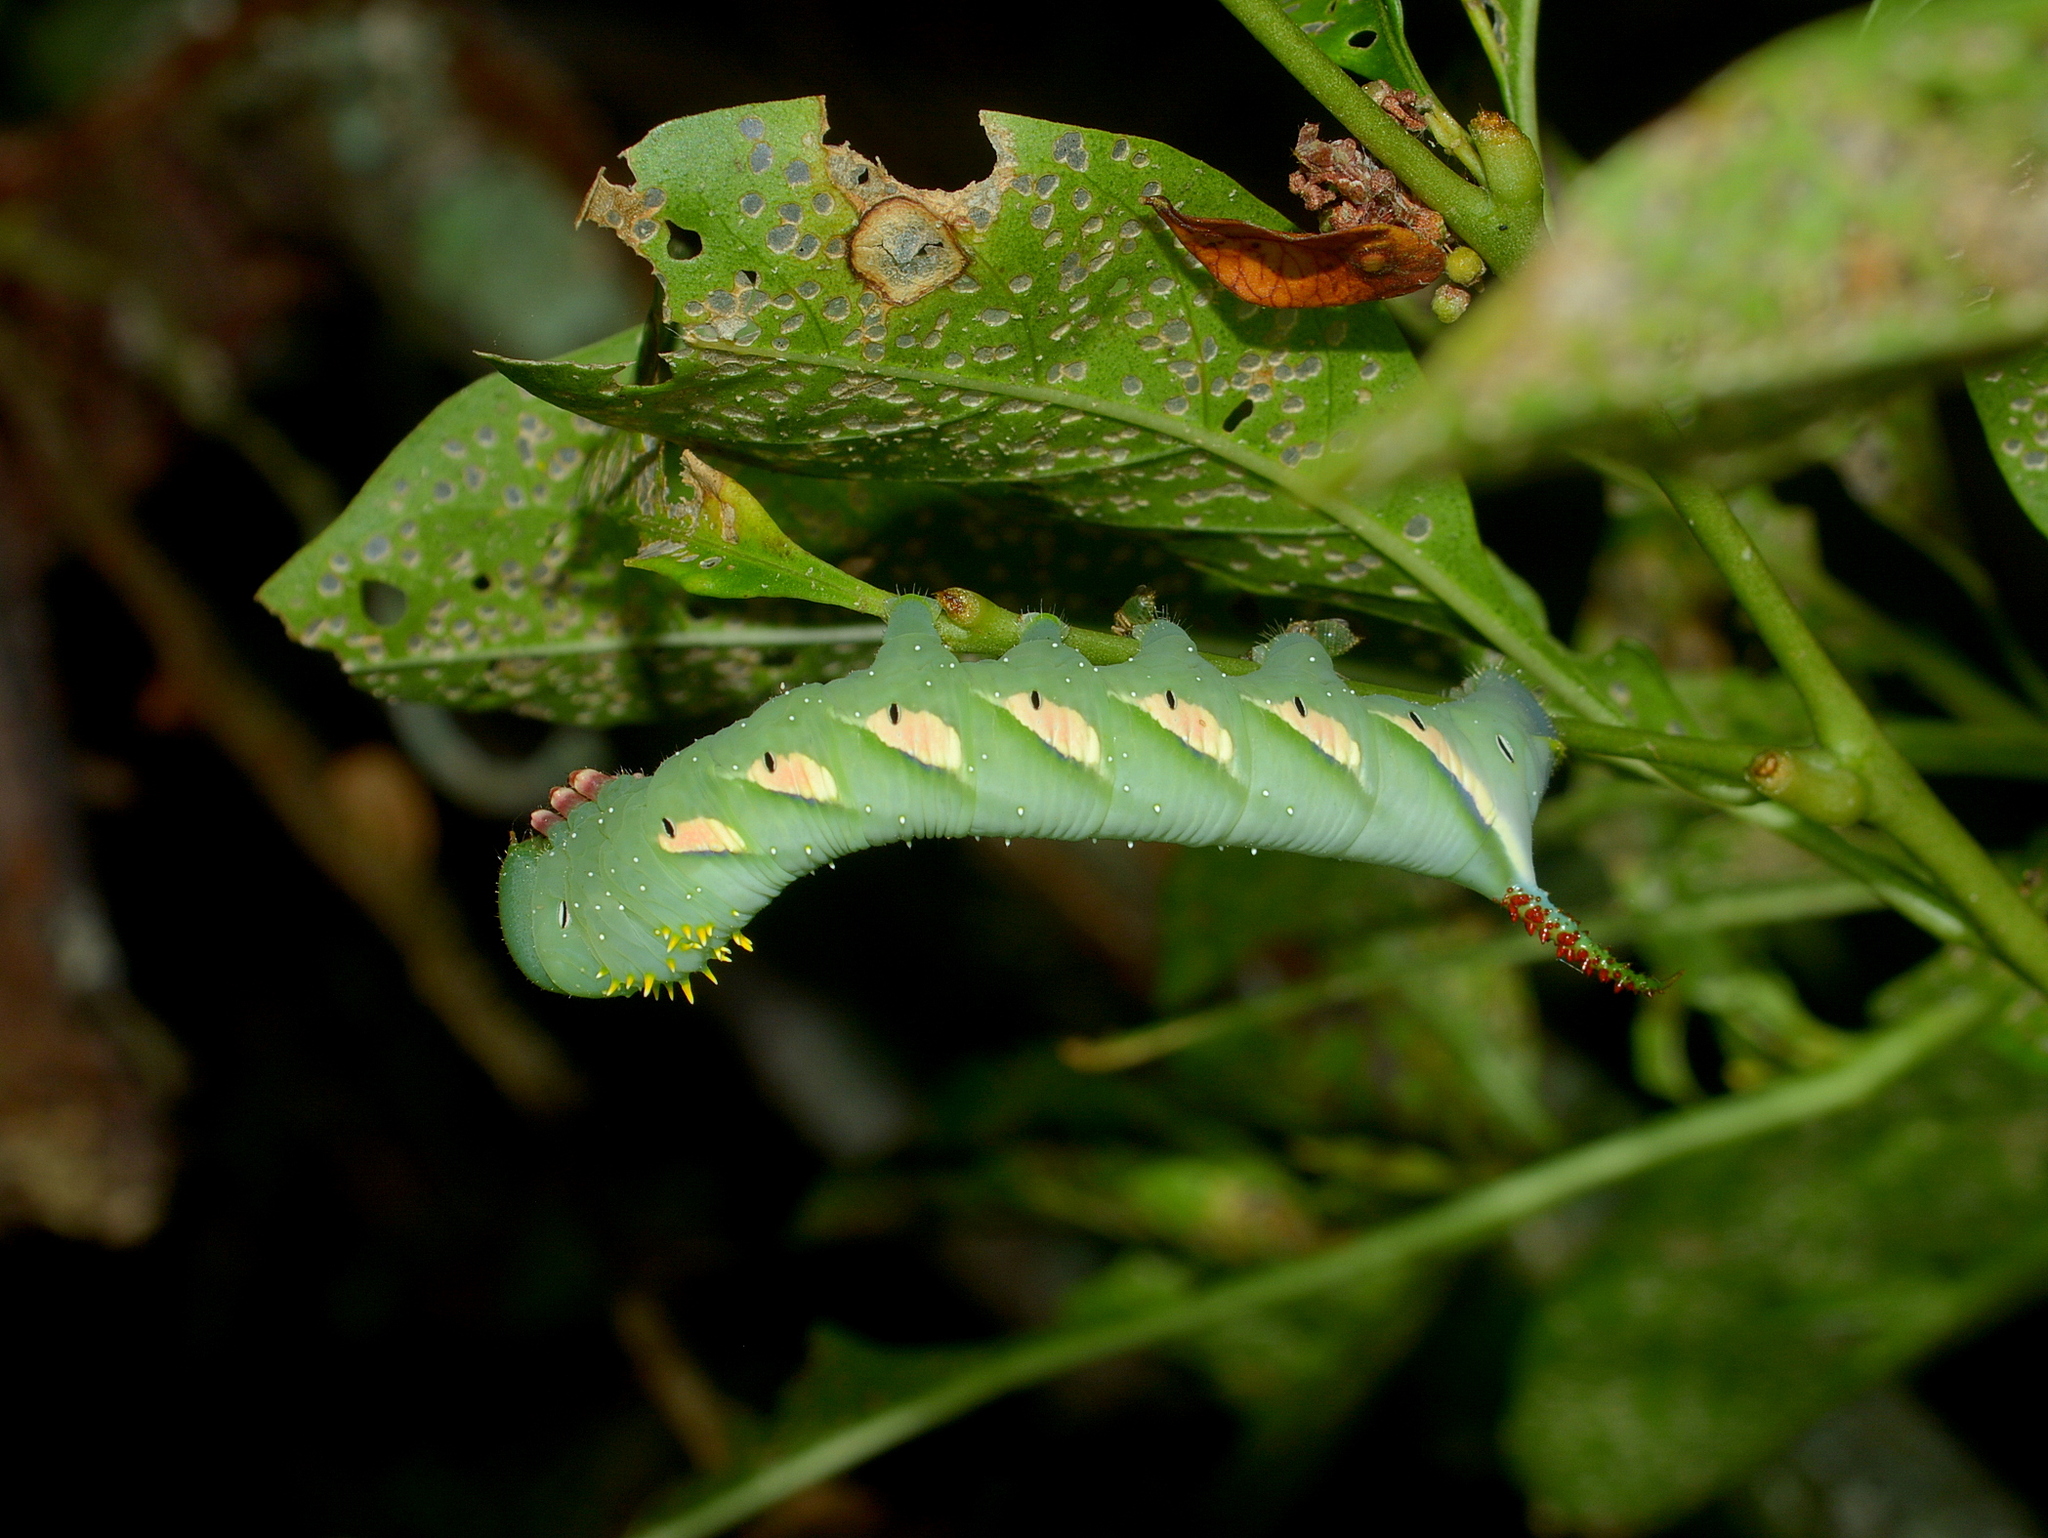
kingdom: Animalia
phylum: Arthropoda
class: Insecta
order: Lepidoptera
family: Sphingidae
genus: Manduca
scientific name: Manduca diffissa
